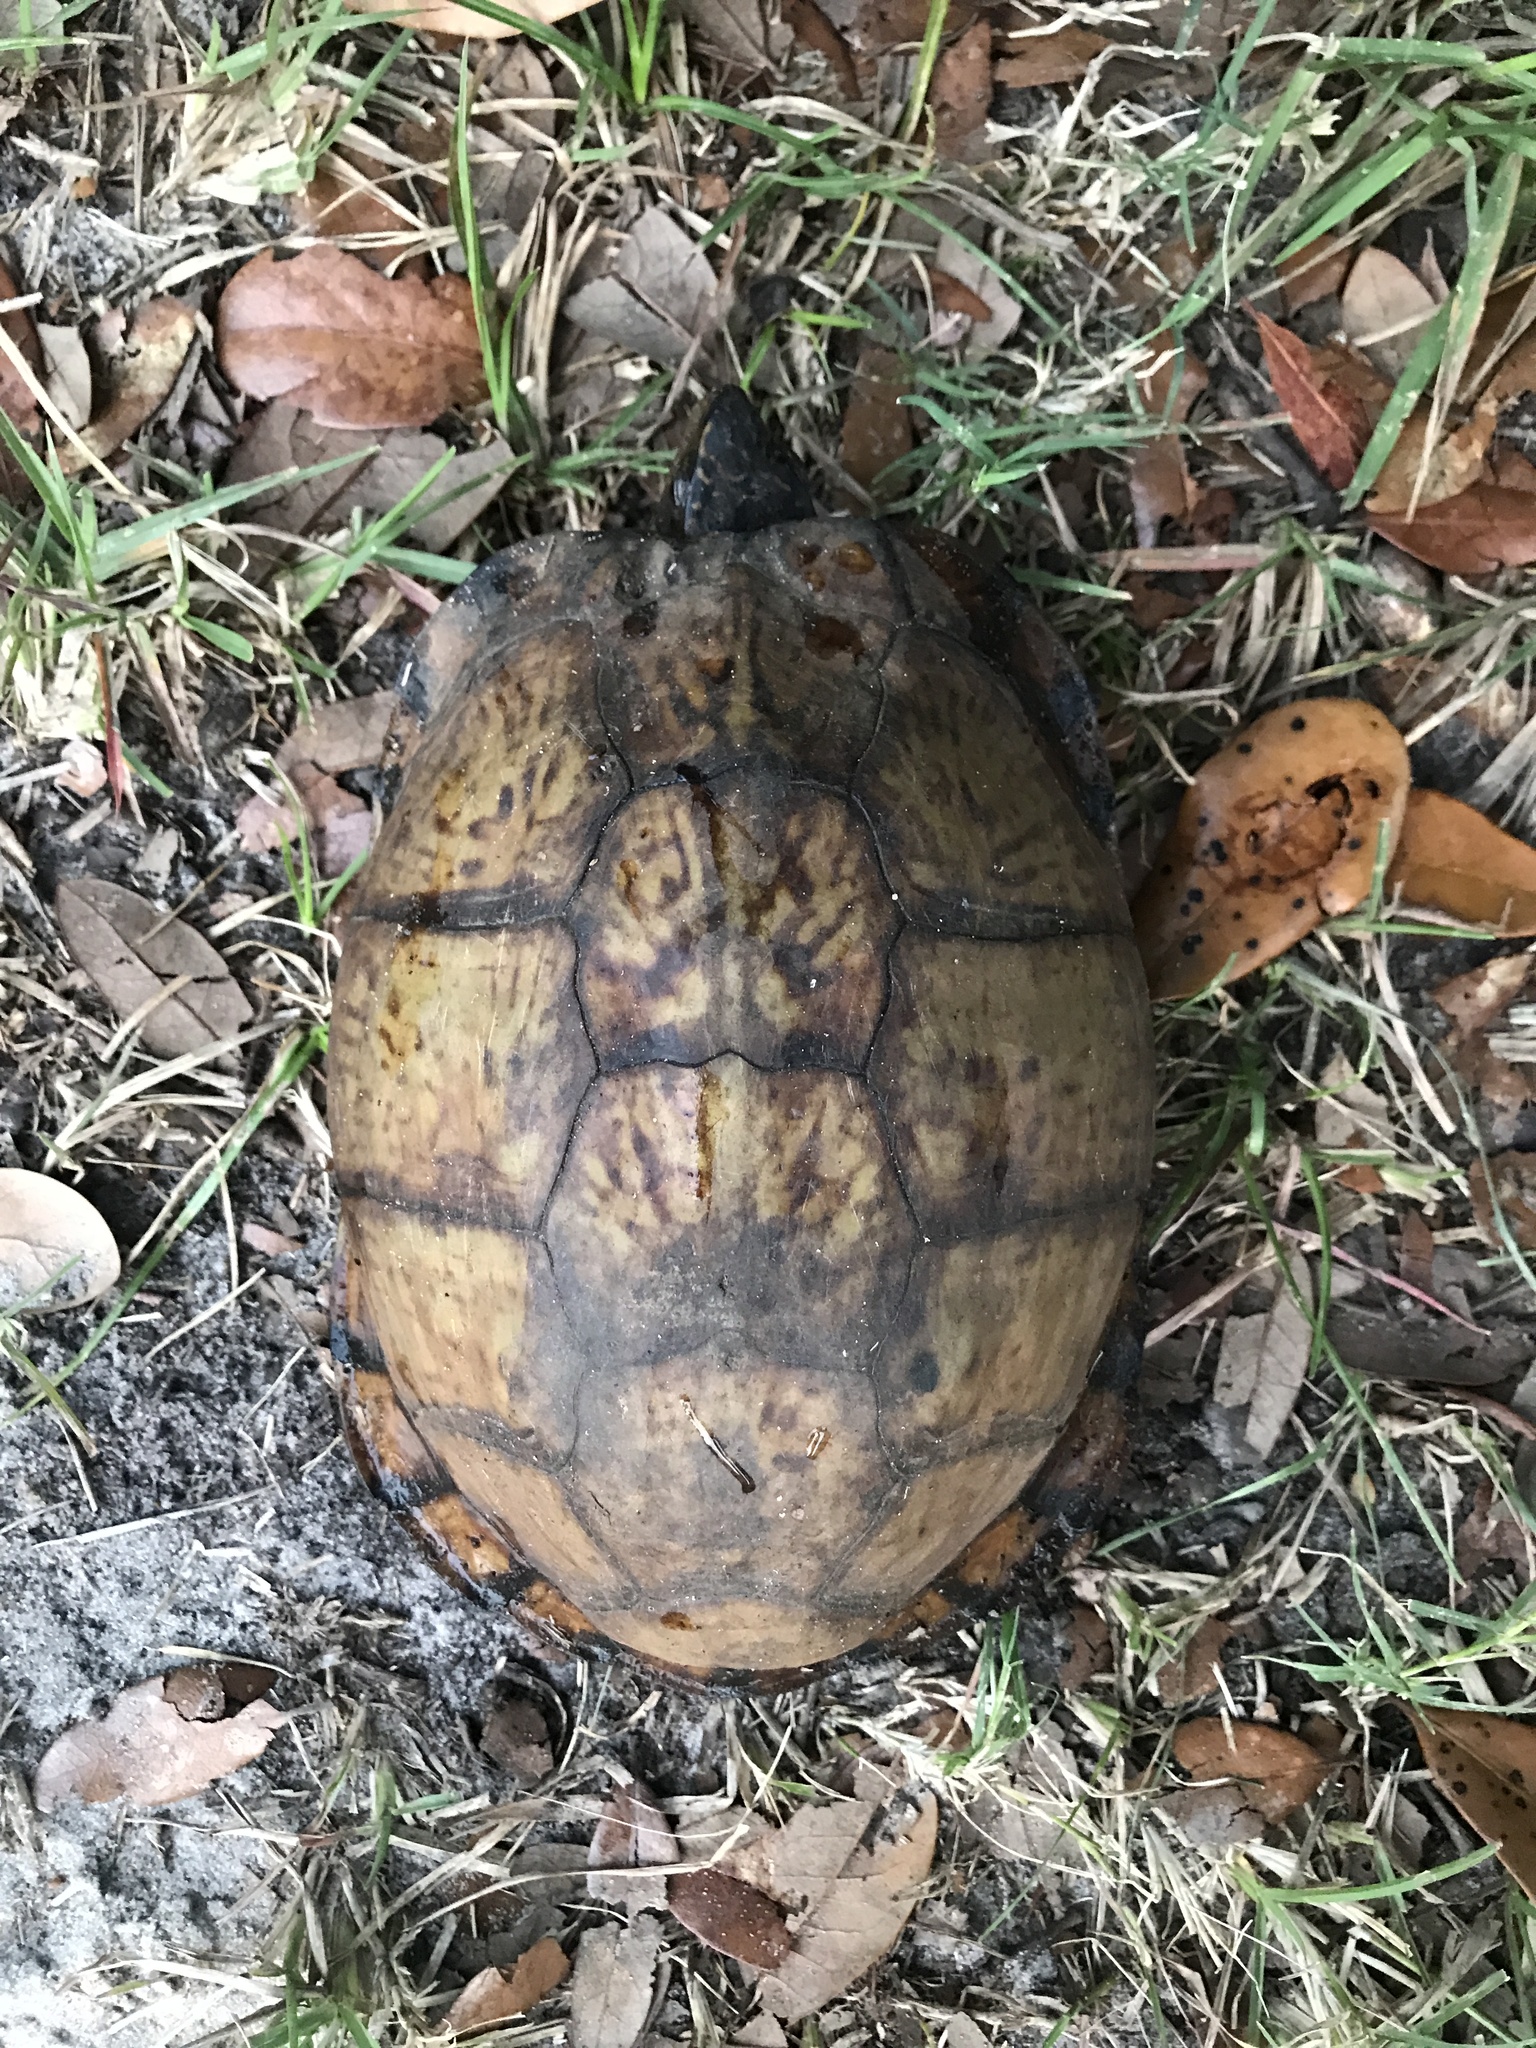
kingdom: Animalia
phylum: Chordata
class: Testudines
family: Emydidae
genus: Terrapene
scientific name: Terrapene carolina
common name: Common box turtle
